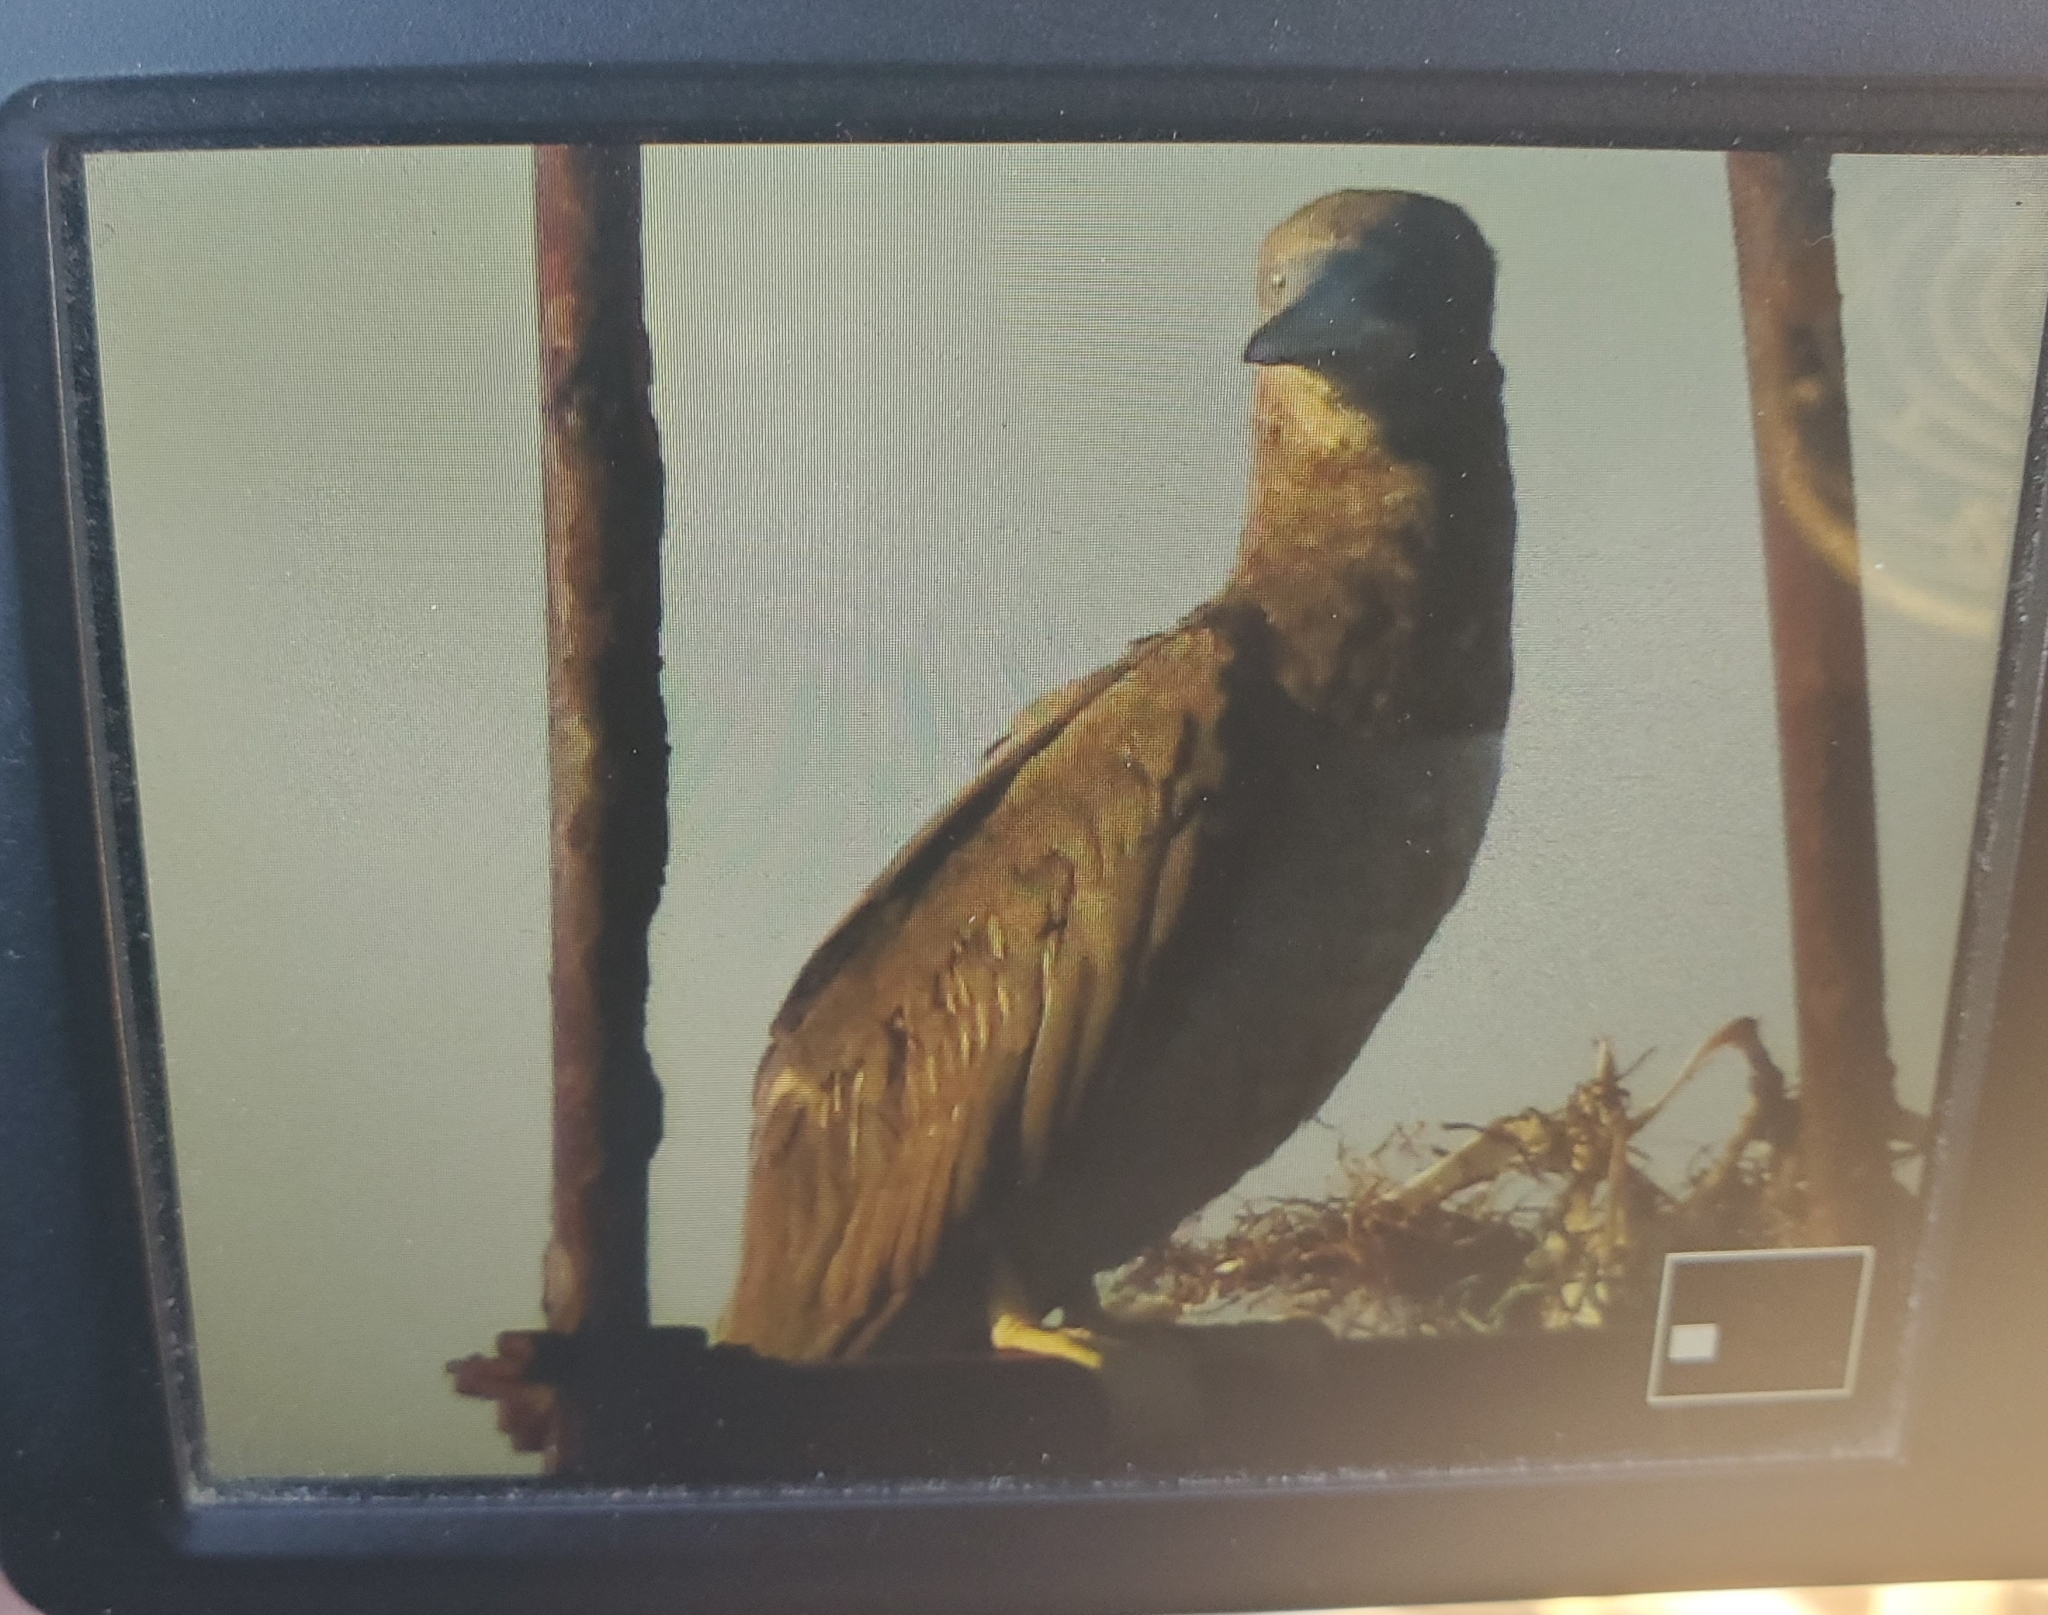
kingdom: Animalia
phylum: Chordata
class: Aves
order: Suliformes
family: Sulidae
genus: Sula
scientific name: Sula leucogaster
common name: Brown booby
